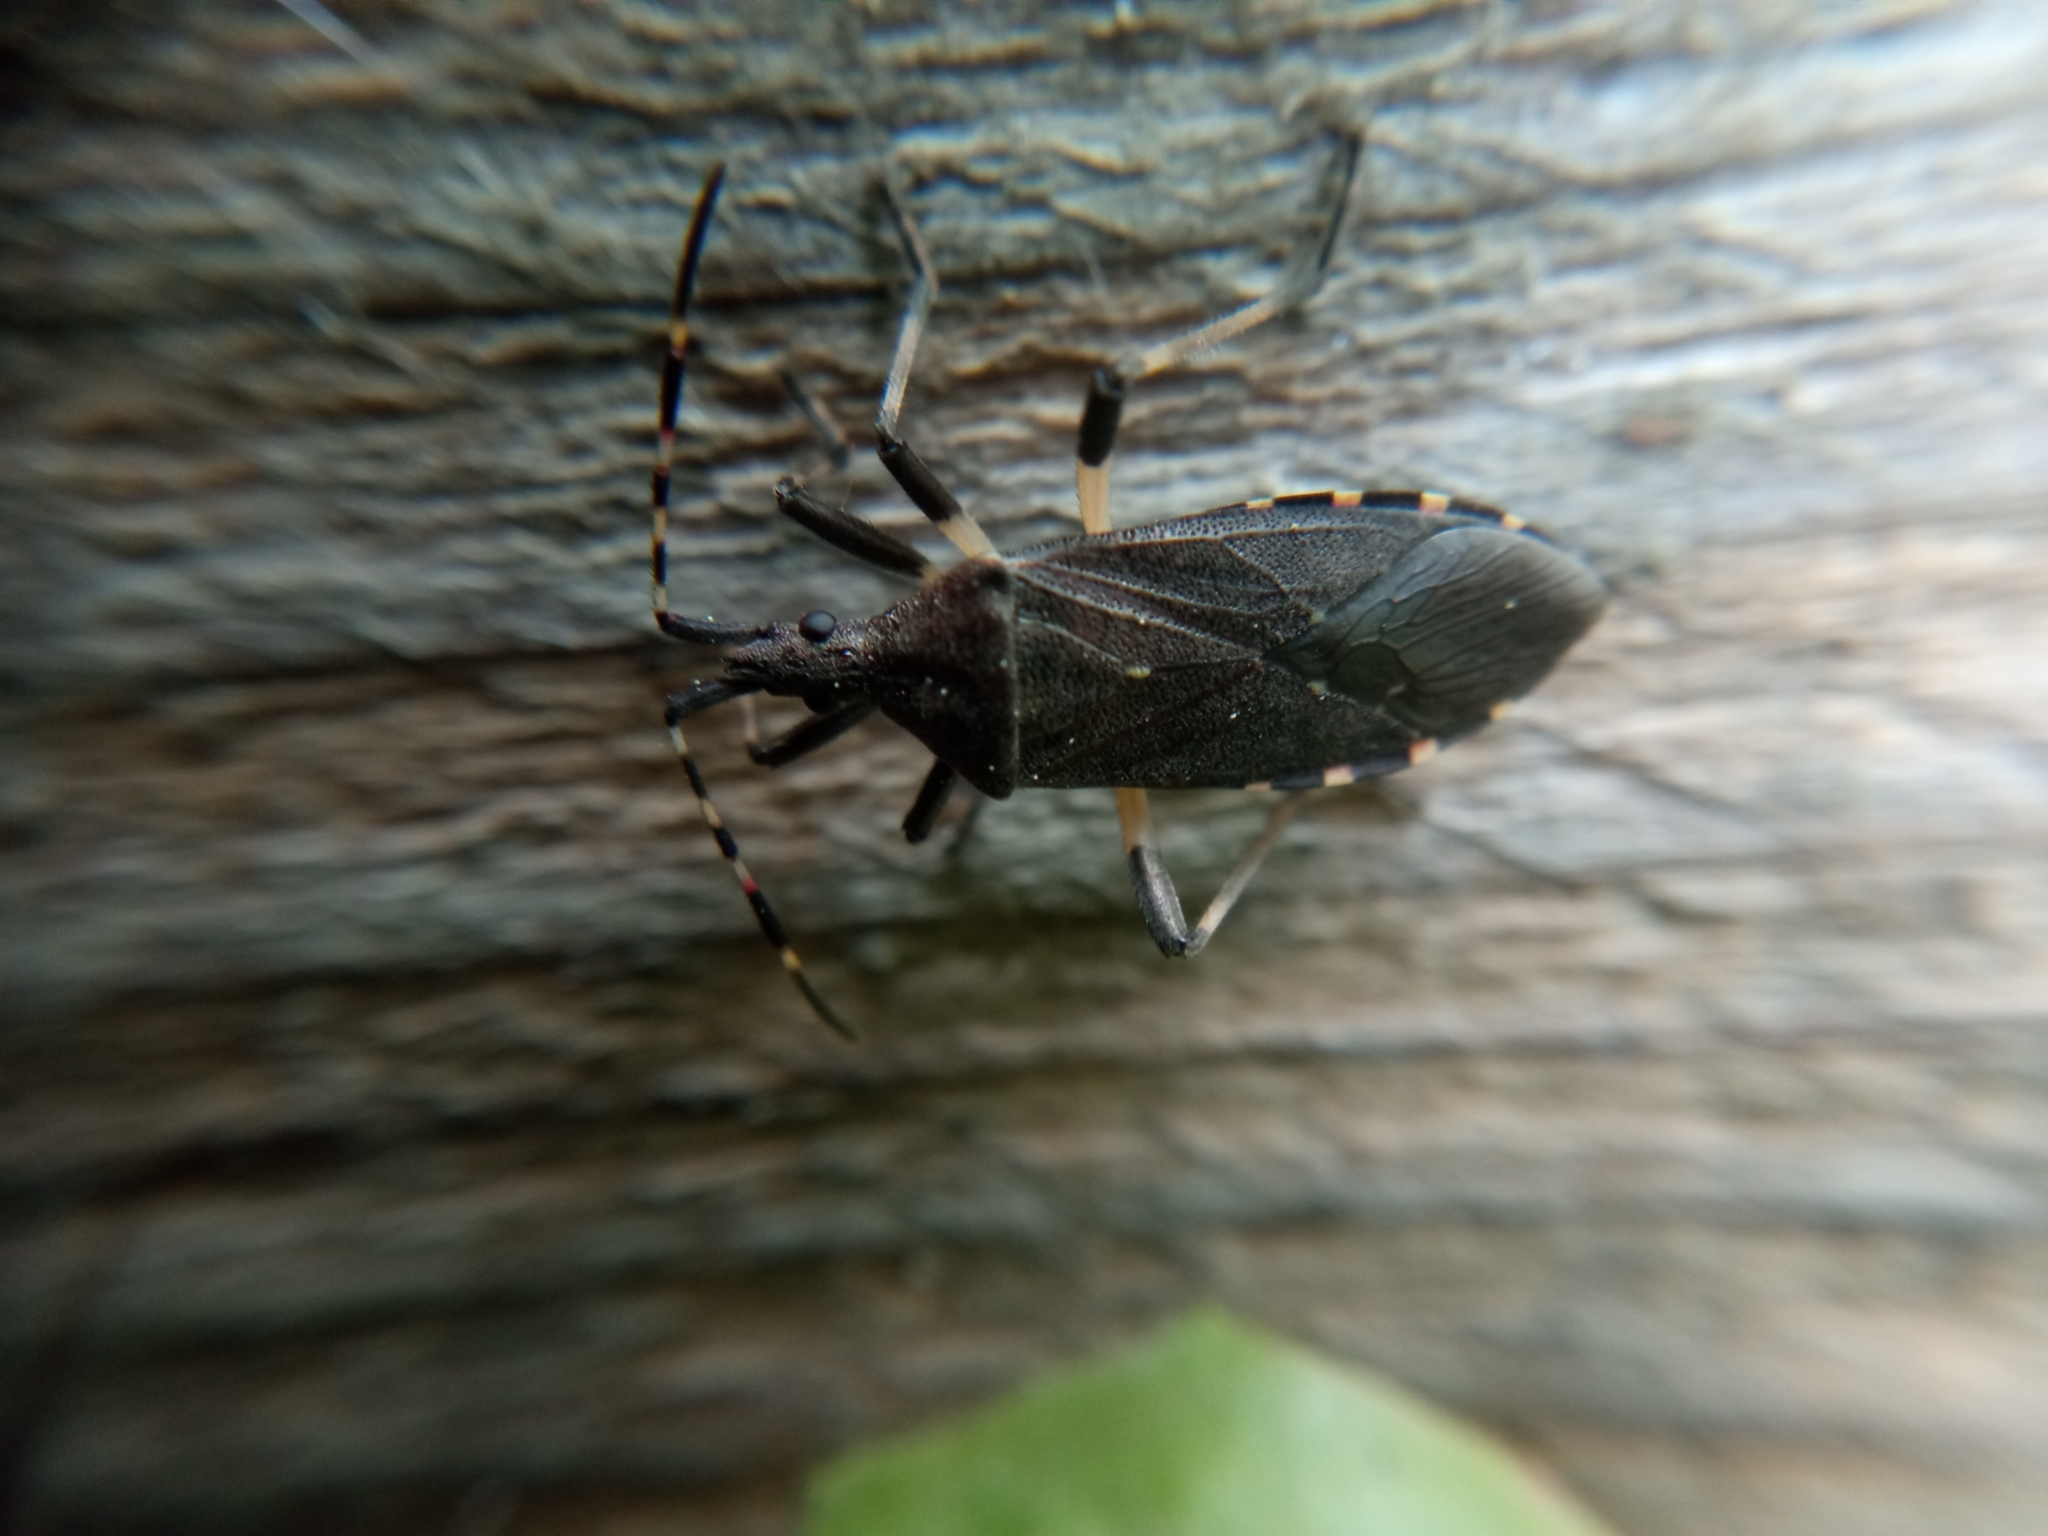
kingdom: Animalia
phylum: Arthropoda
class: Insecta
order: Hemiptera
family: Stenocephalidae
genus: Dicranocephalus
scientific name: Dicranocephalus agilis
